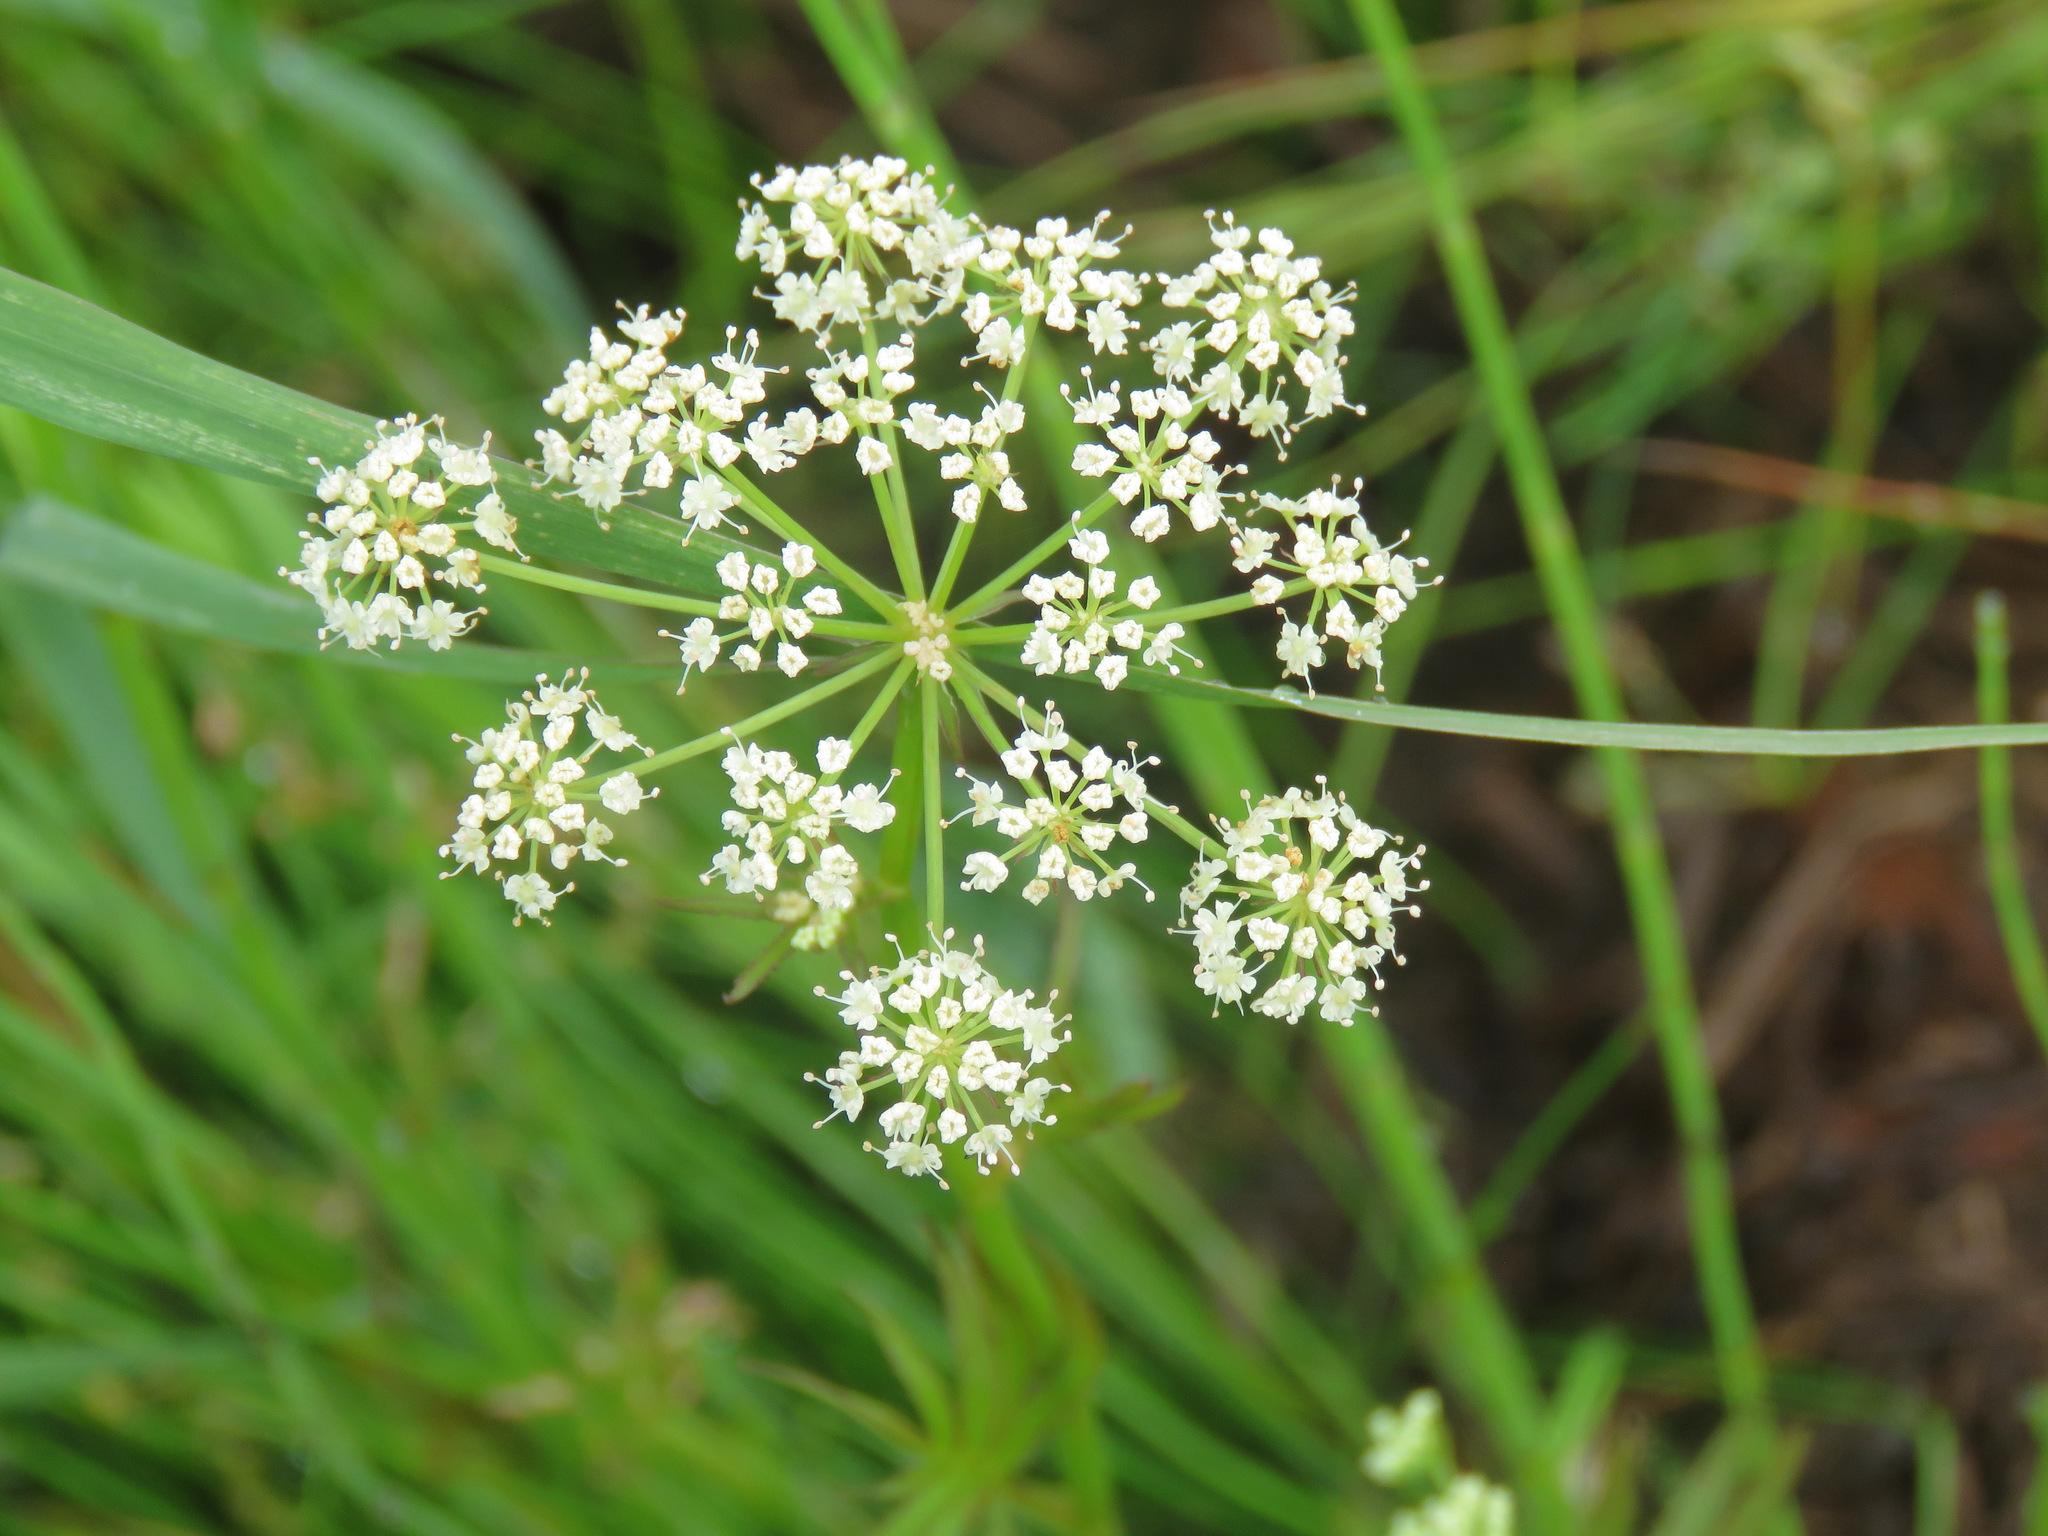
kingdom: Plantae
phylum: Tracheophyta
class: Magnoliopsida
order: Apiales
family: Apiaceae
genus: Sium
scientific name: Sium suave
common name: Hemlock water-parsnip
